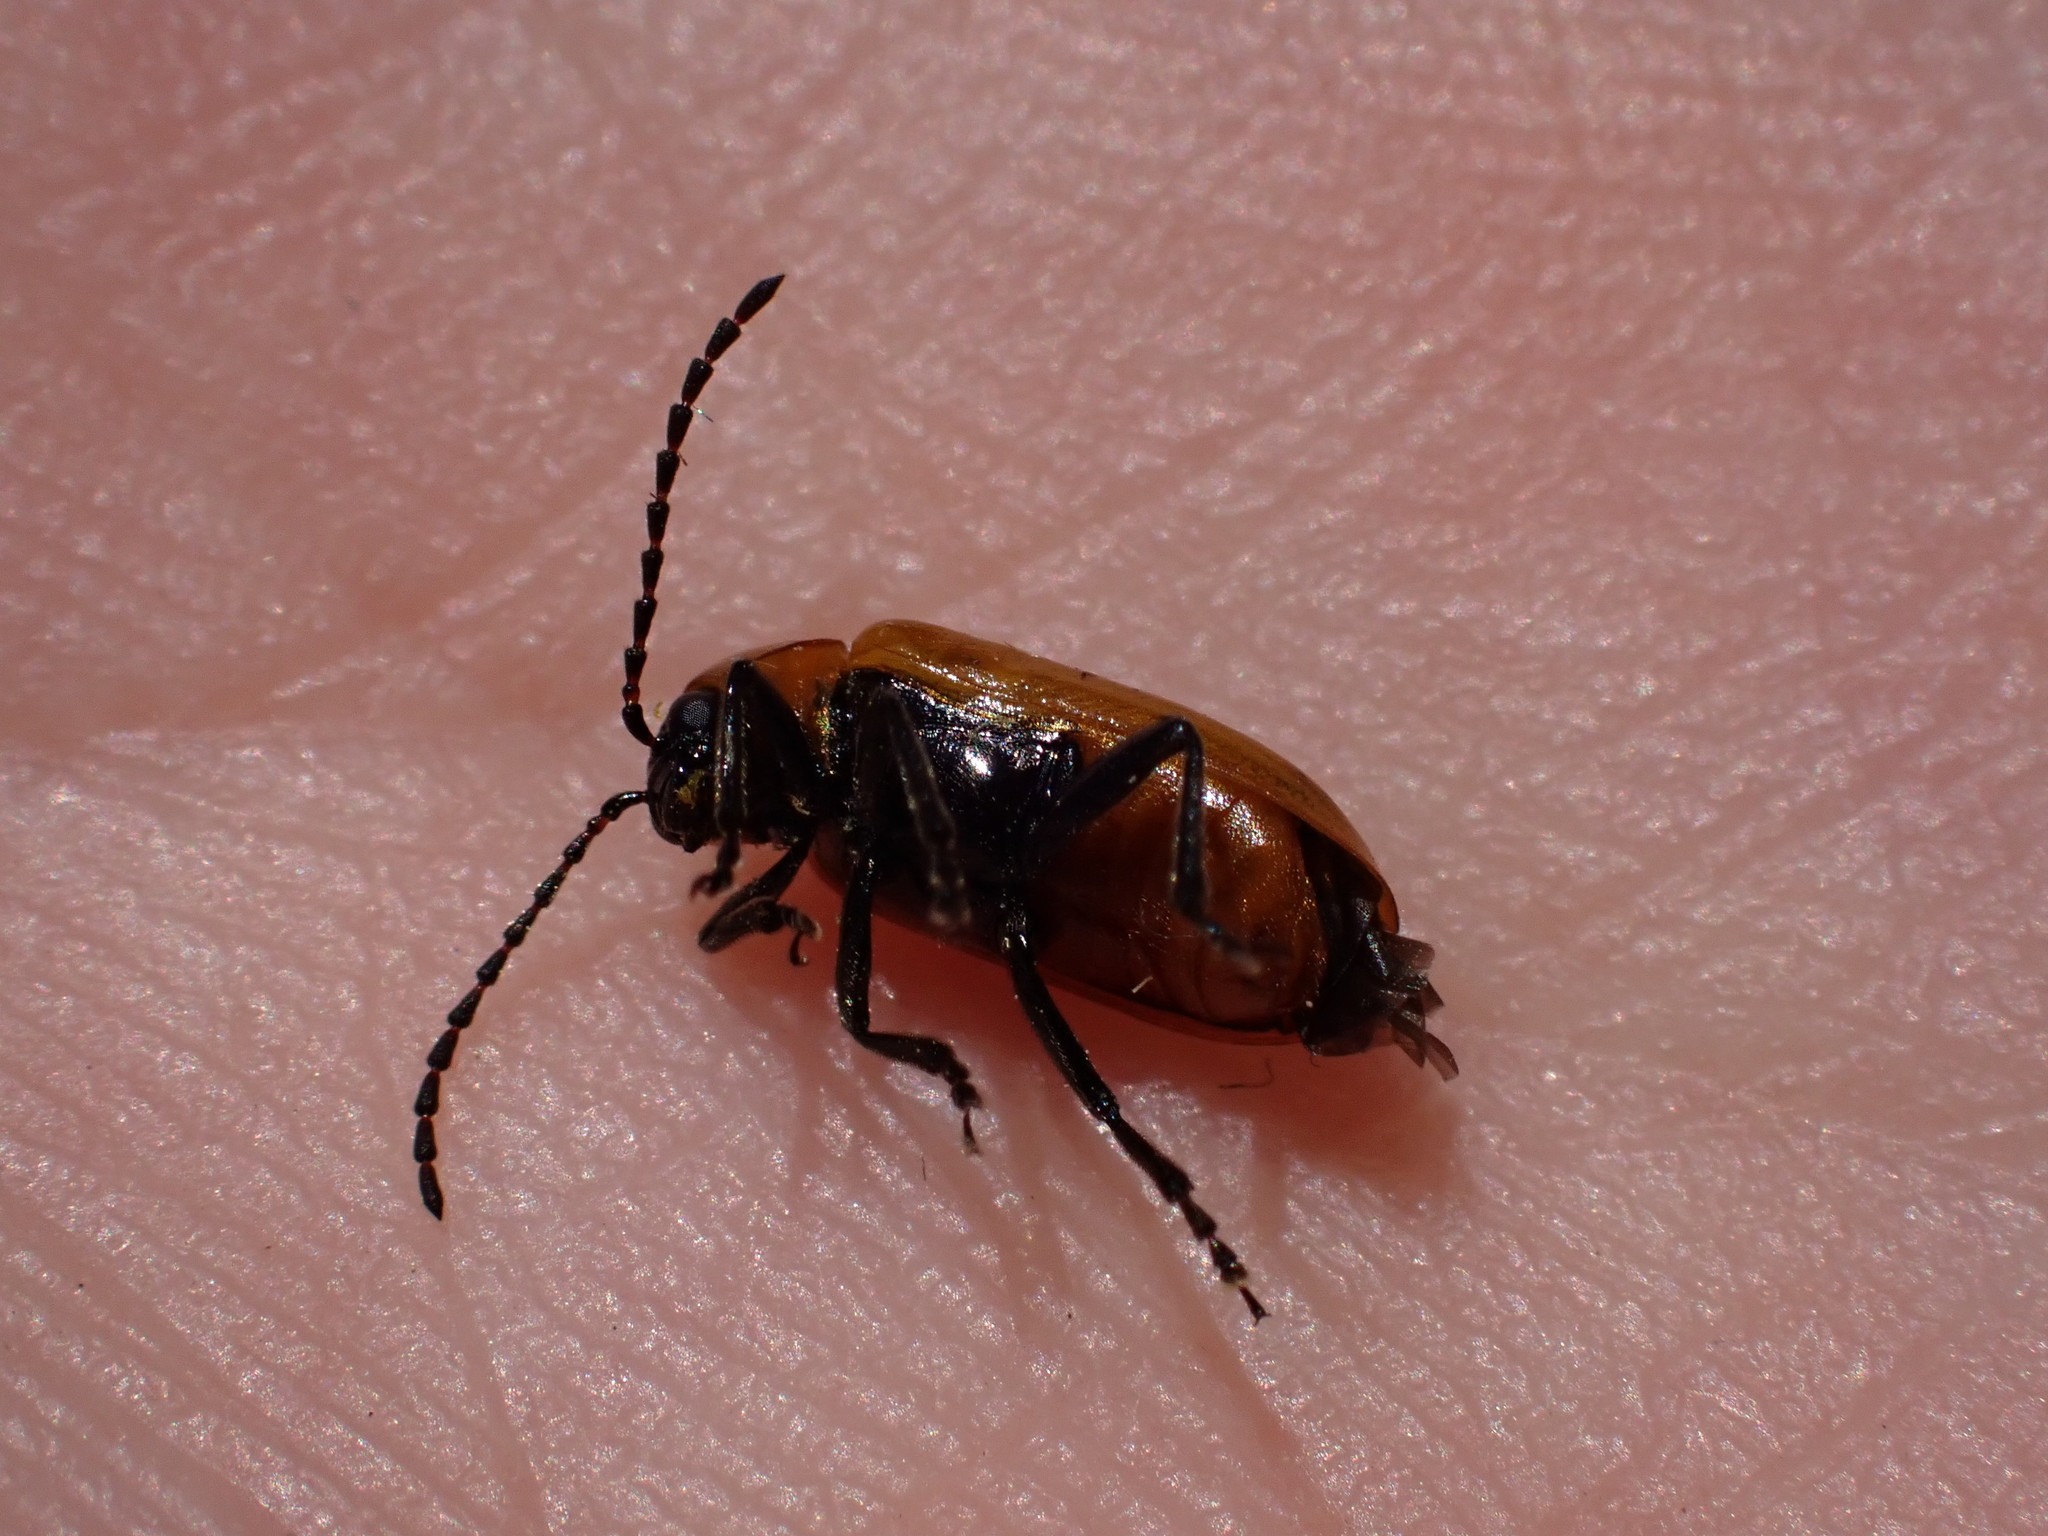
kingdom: Animalia
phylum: Arthropoda
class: Insecta
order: Coleoptera
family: Chrysomelidae
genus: Exosoma
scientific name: Exosoma lusitanicum
